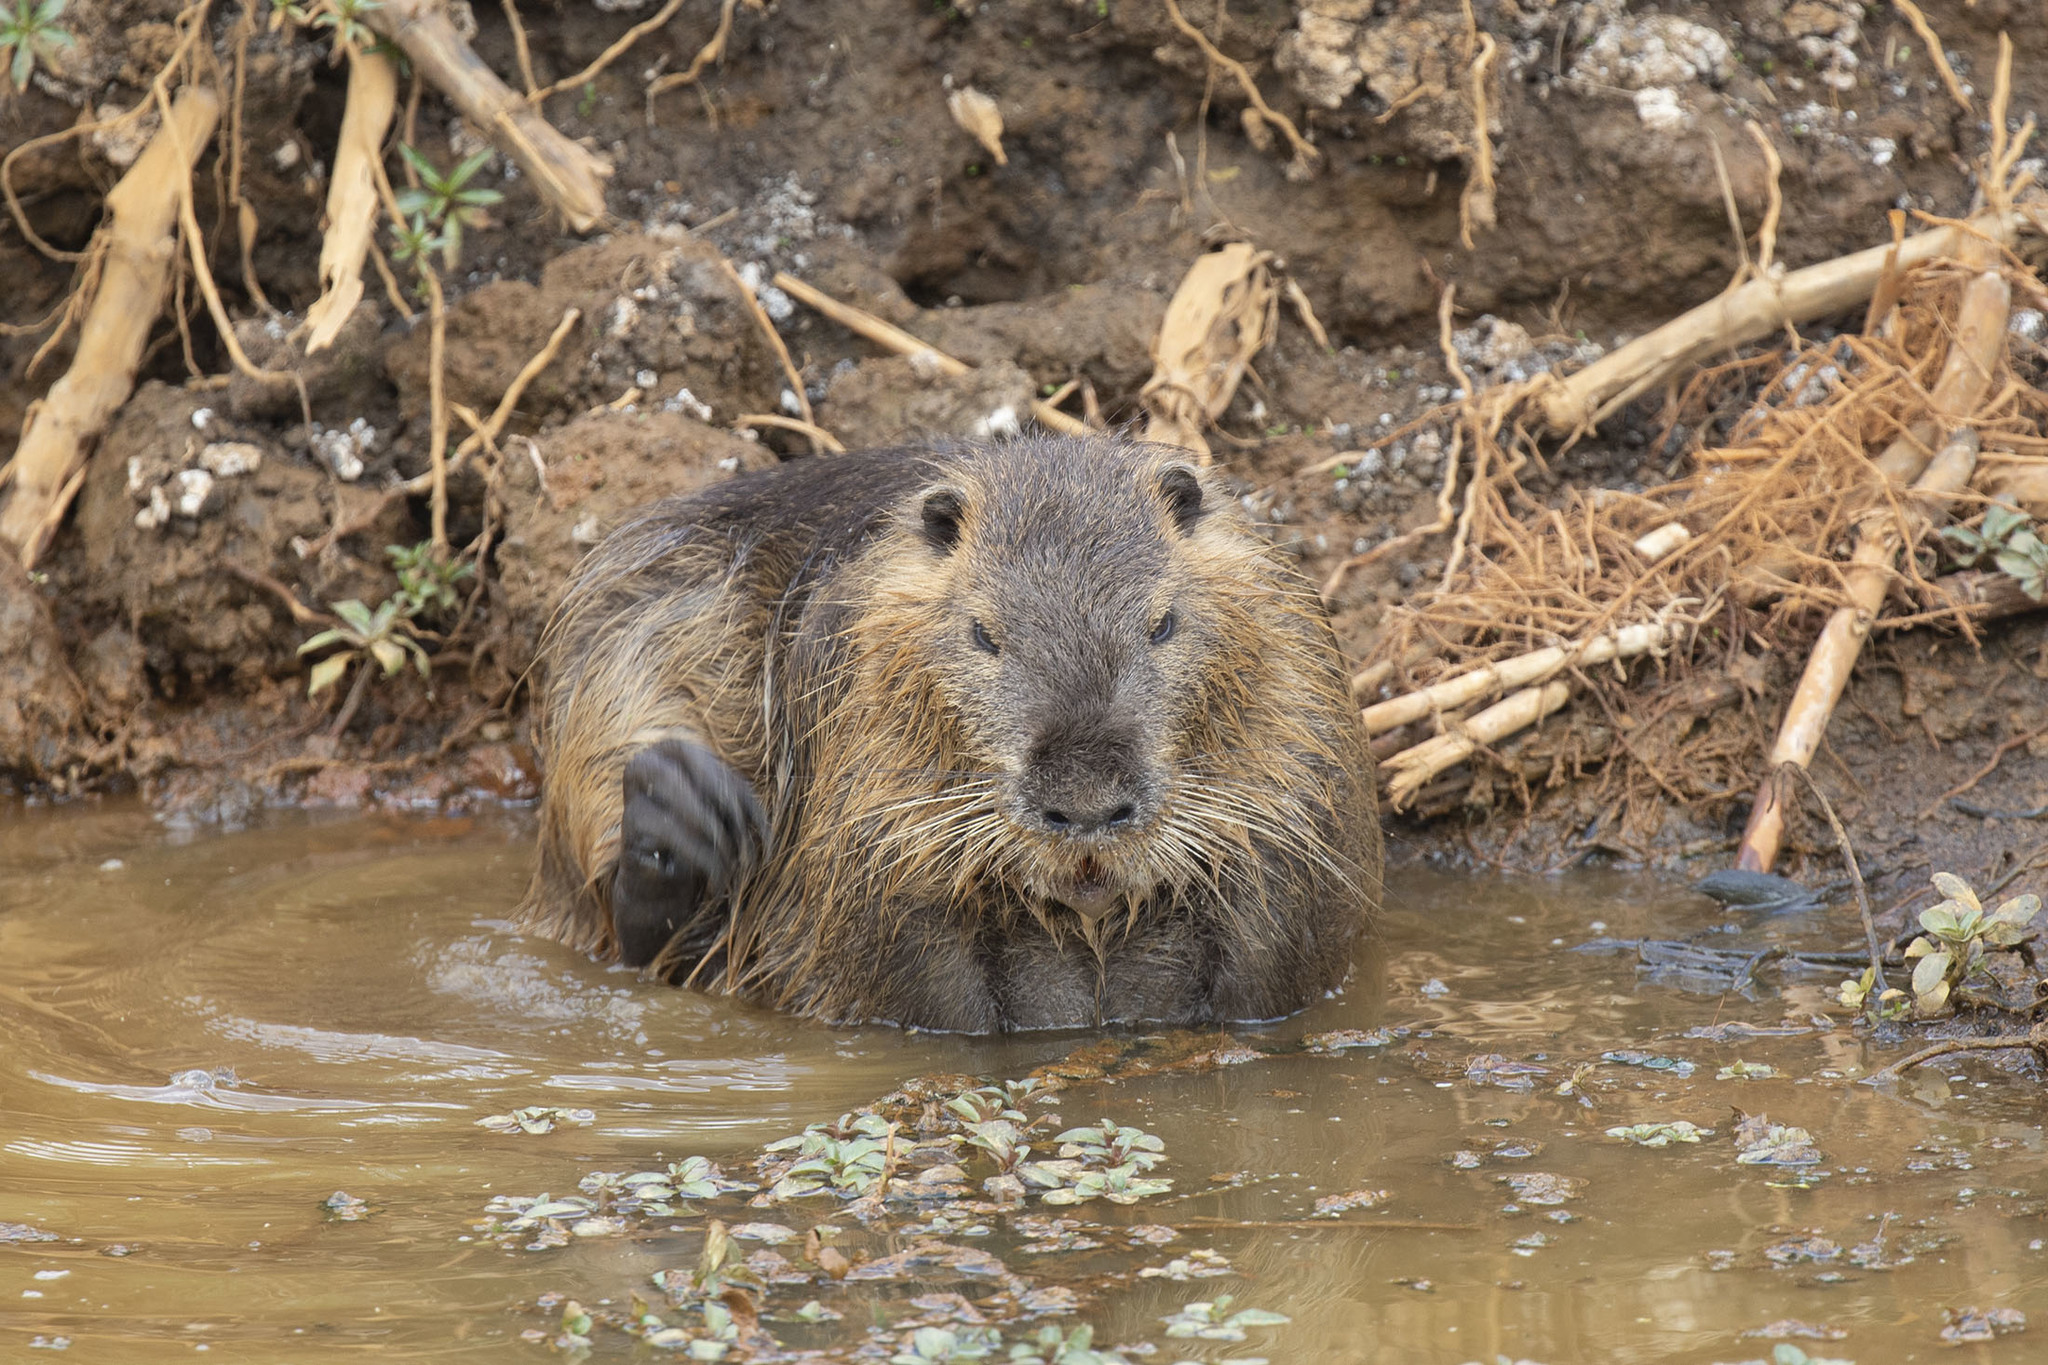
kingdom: Animalia
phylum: Chordata
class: Mammalia
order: Rodentia
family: Myocastoridae
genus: Myocastor
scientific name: Myocastor coypus
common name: Coypu
